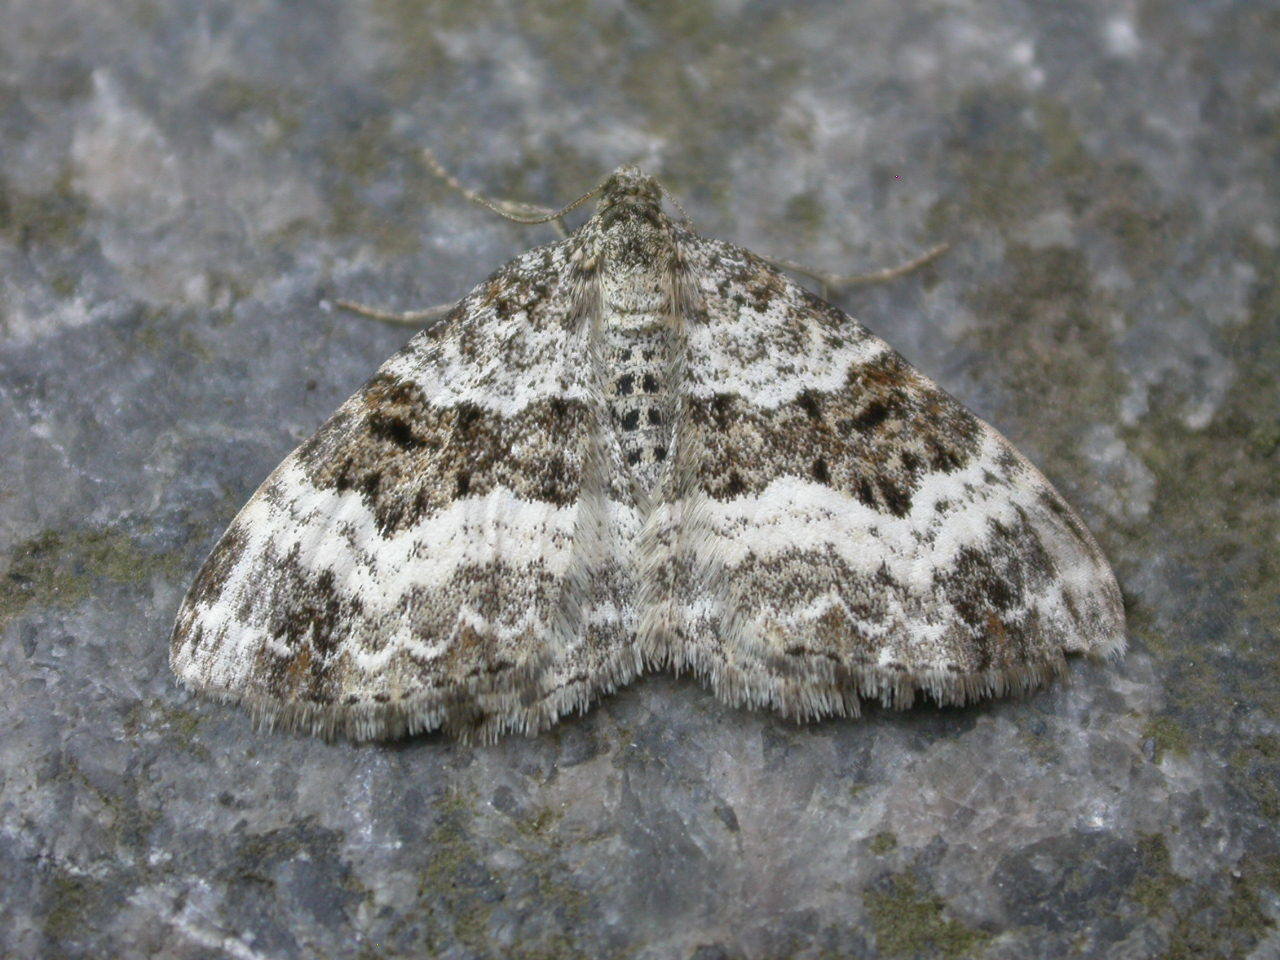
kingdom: Animalia
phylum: Arthropoda
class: Insecta
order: Lepidoptera
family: Geometridae
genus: Epirrhoe
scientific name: Epirrhoe alternata
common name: Common carpet
